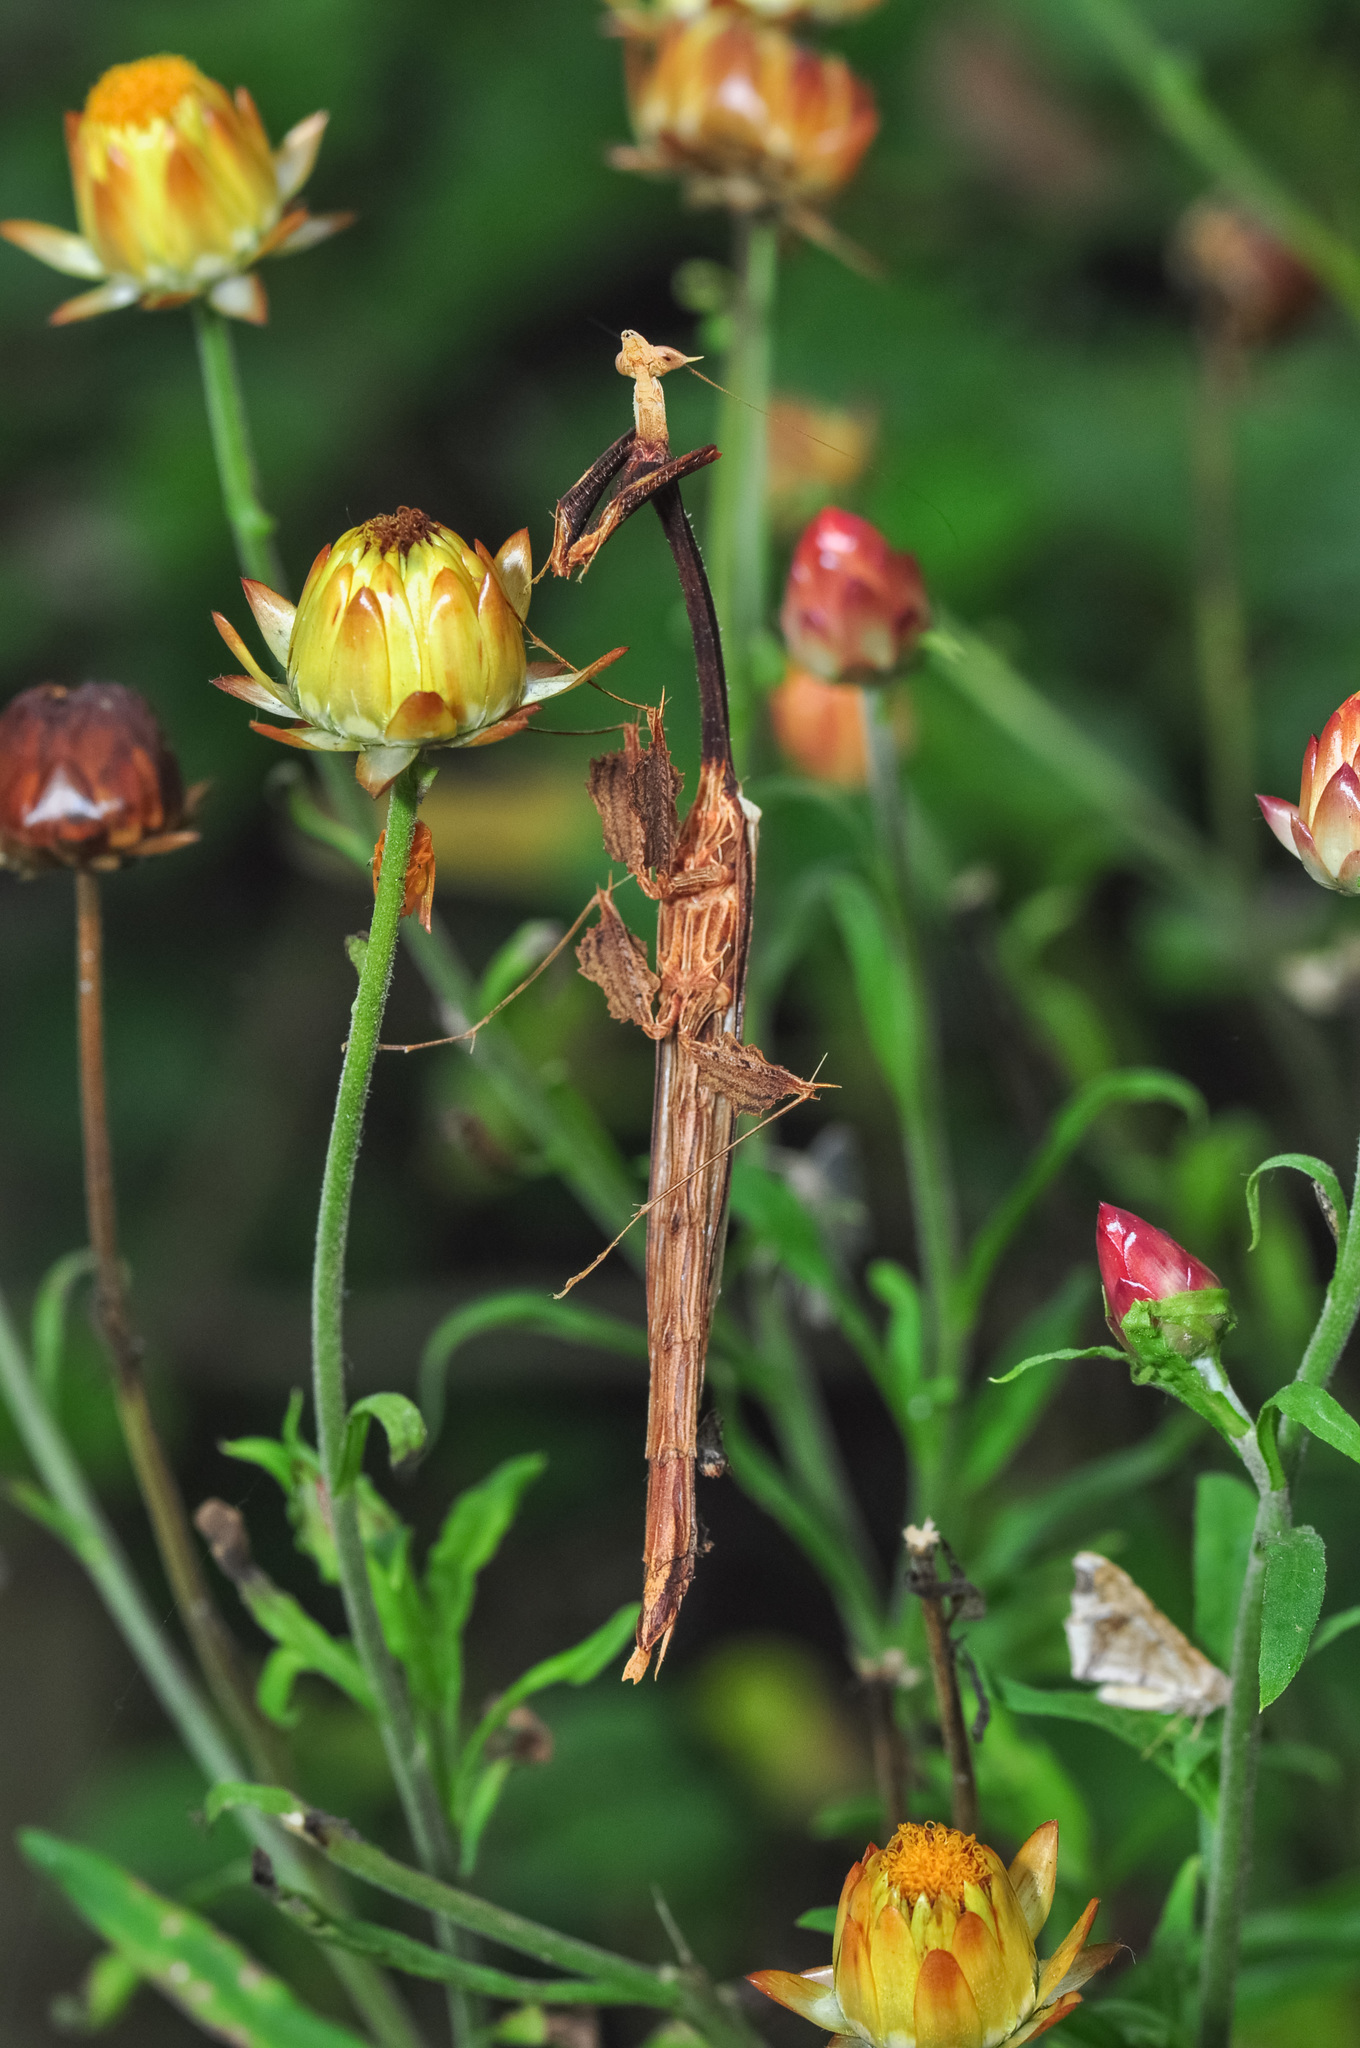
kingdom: Animalia
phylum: Arthropoda
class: Insecta
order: Mantodea
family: Toxoderidae
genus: Toxodera
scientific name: Toxodera fimbriata
